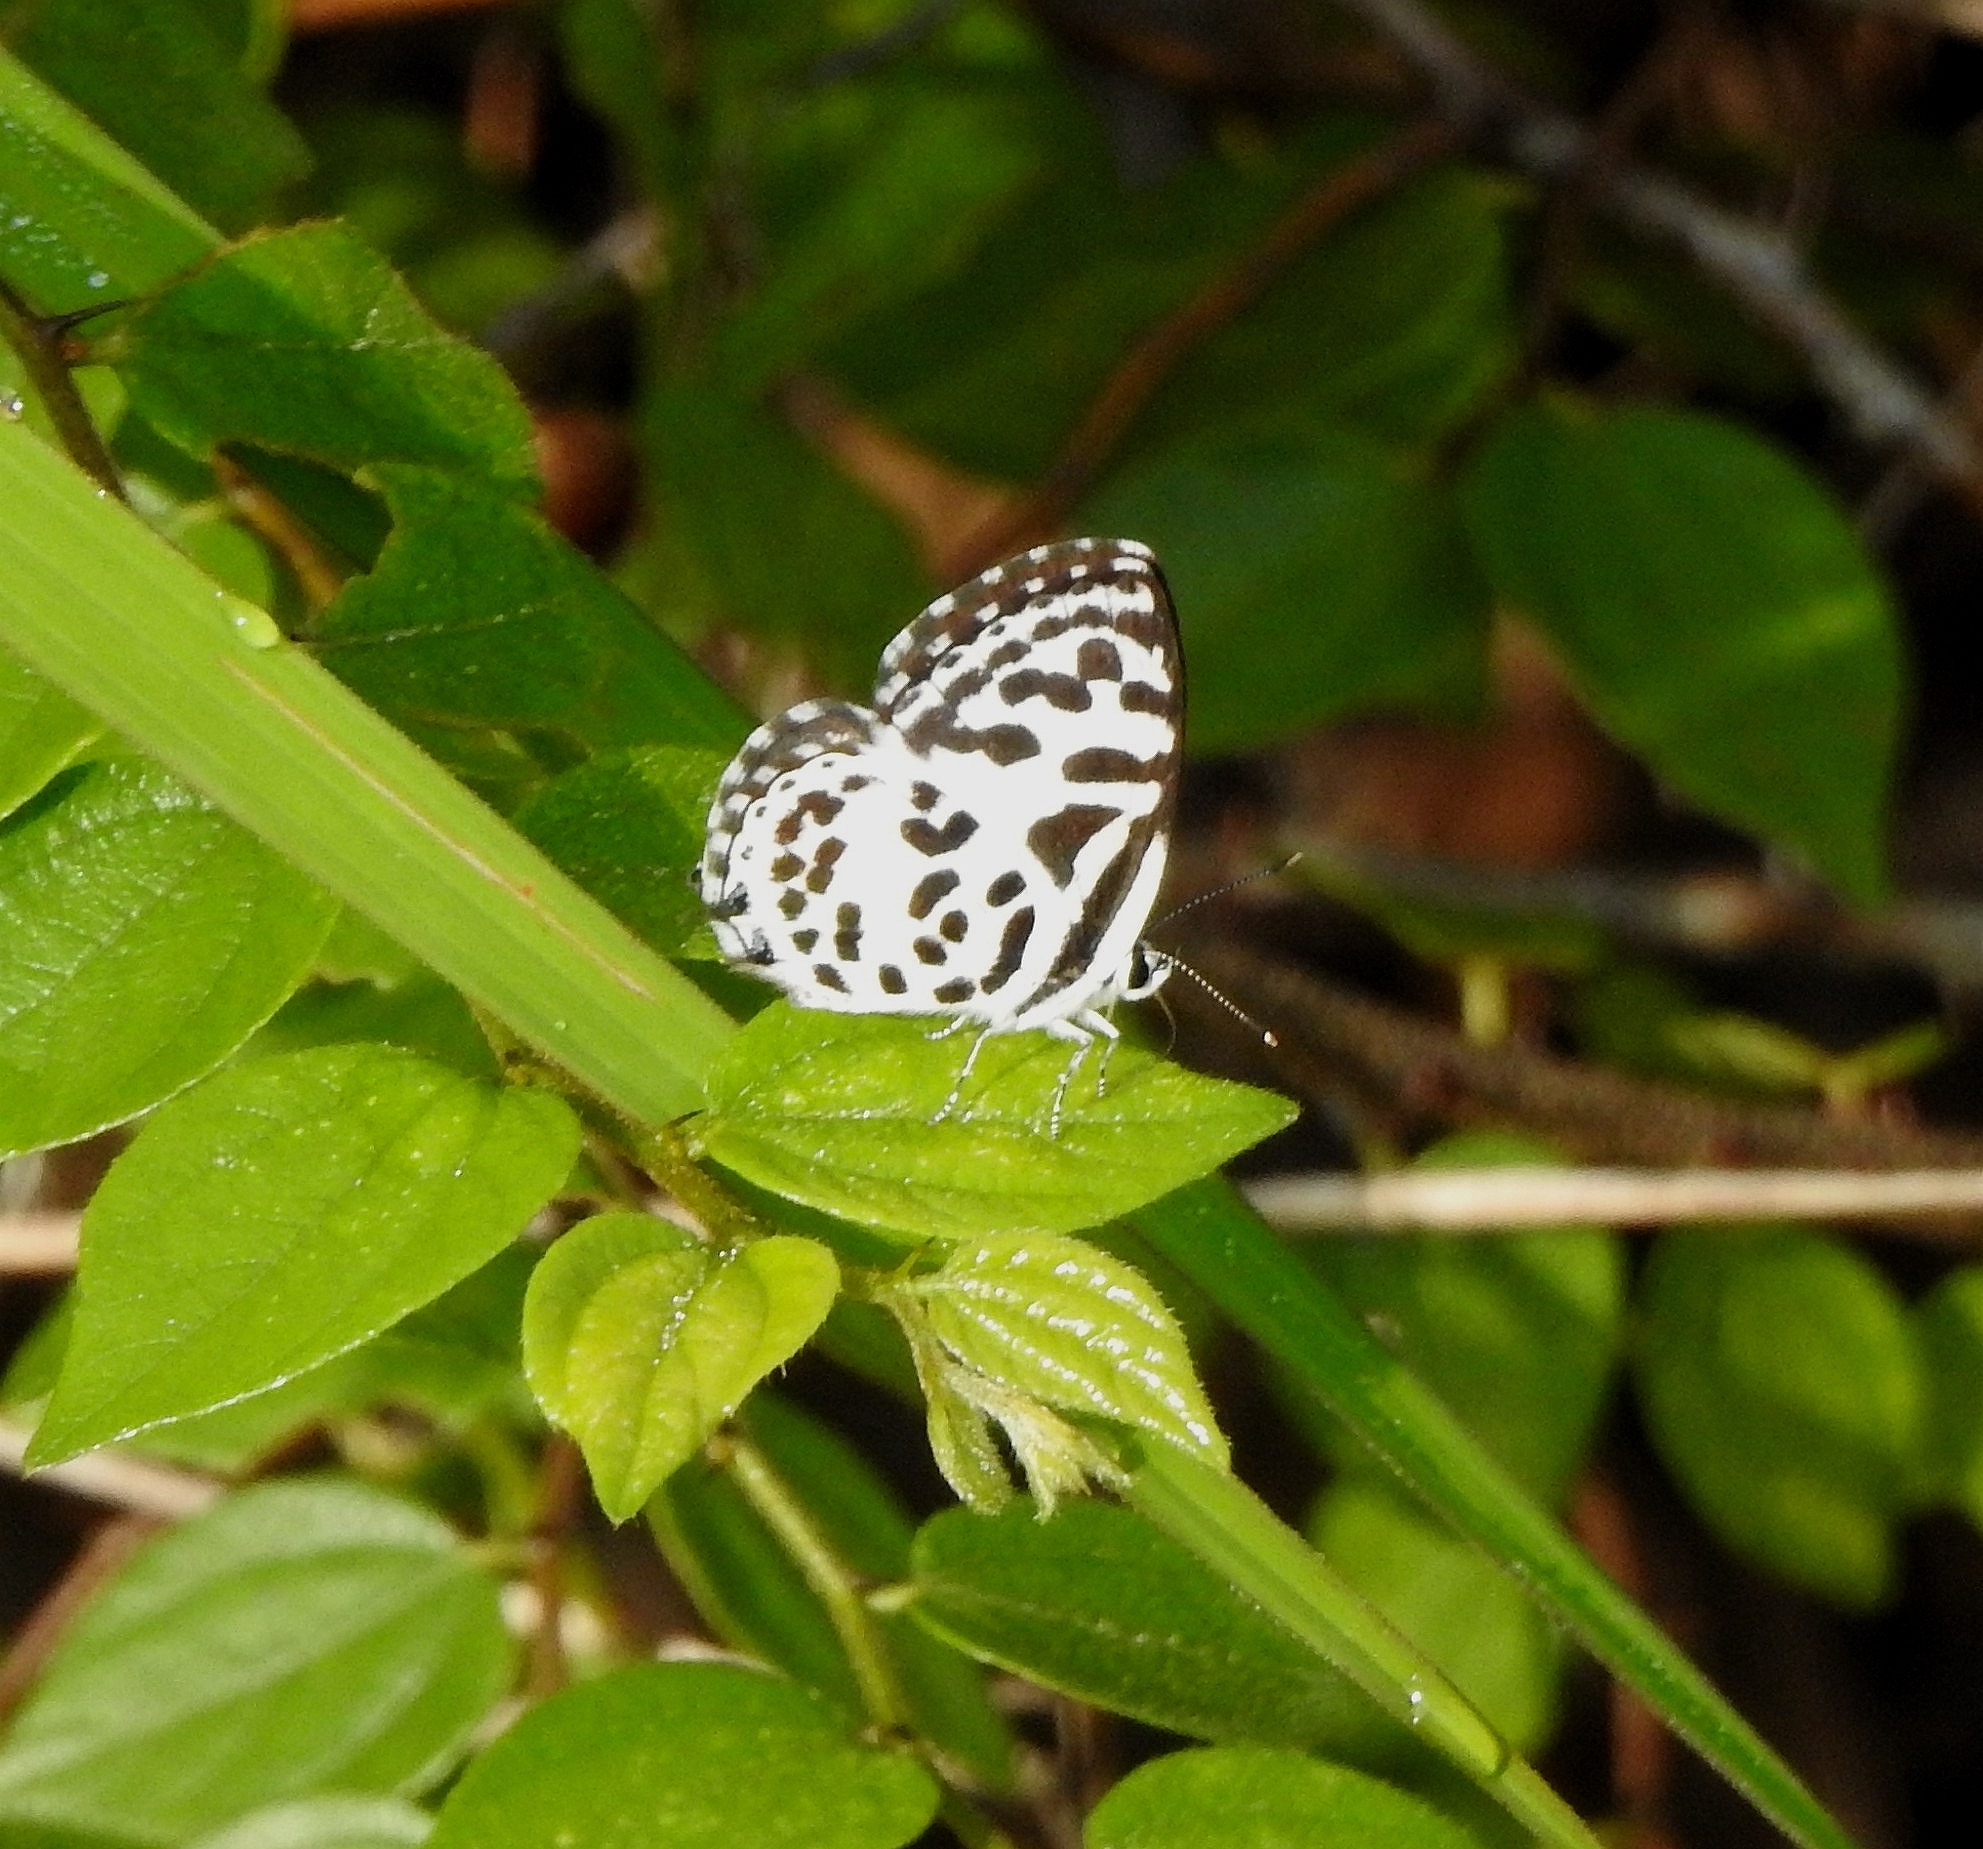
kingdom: Animalia
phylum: Arthropoda
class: Insecta
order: Lepidoptera
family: Lycaenidae
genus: Castalius
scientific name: Castalius rosimon
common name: Common pierrot
